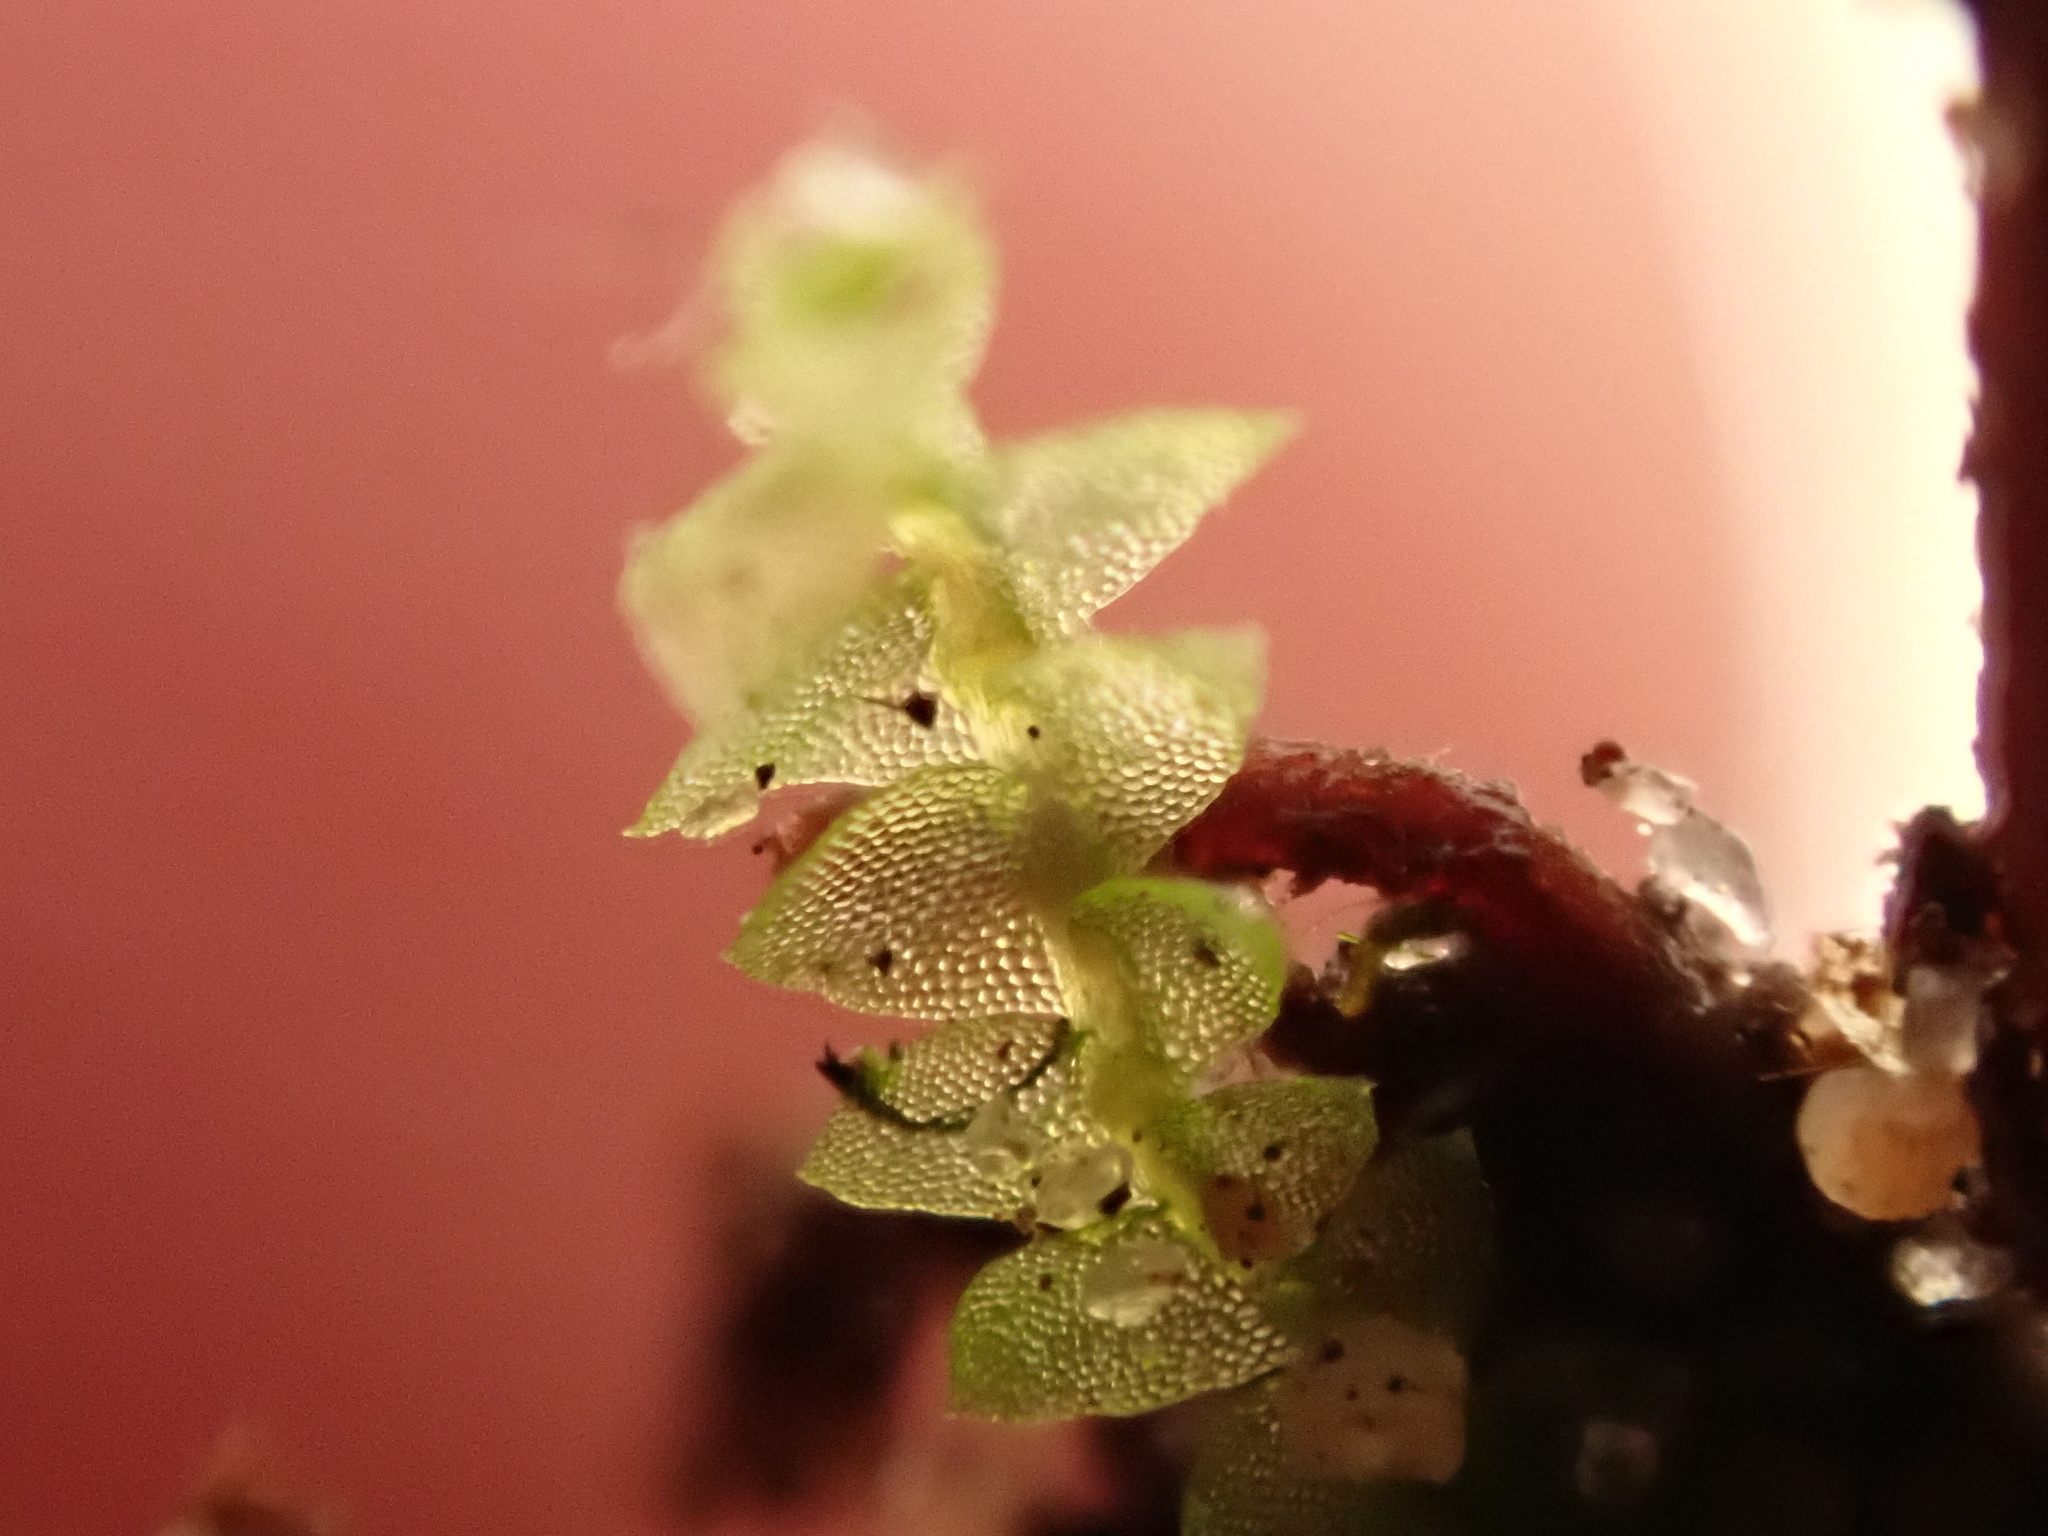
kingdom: Plantae
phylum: Marchantiophyta
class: Jungermanniopsida
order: Jungermanniales
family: Calypogeiaceae
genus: Calypogeia
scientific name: Calypogeia fissa
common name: Common pouchwort
